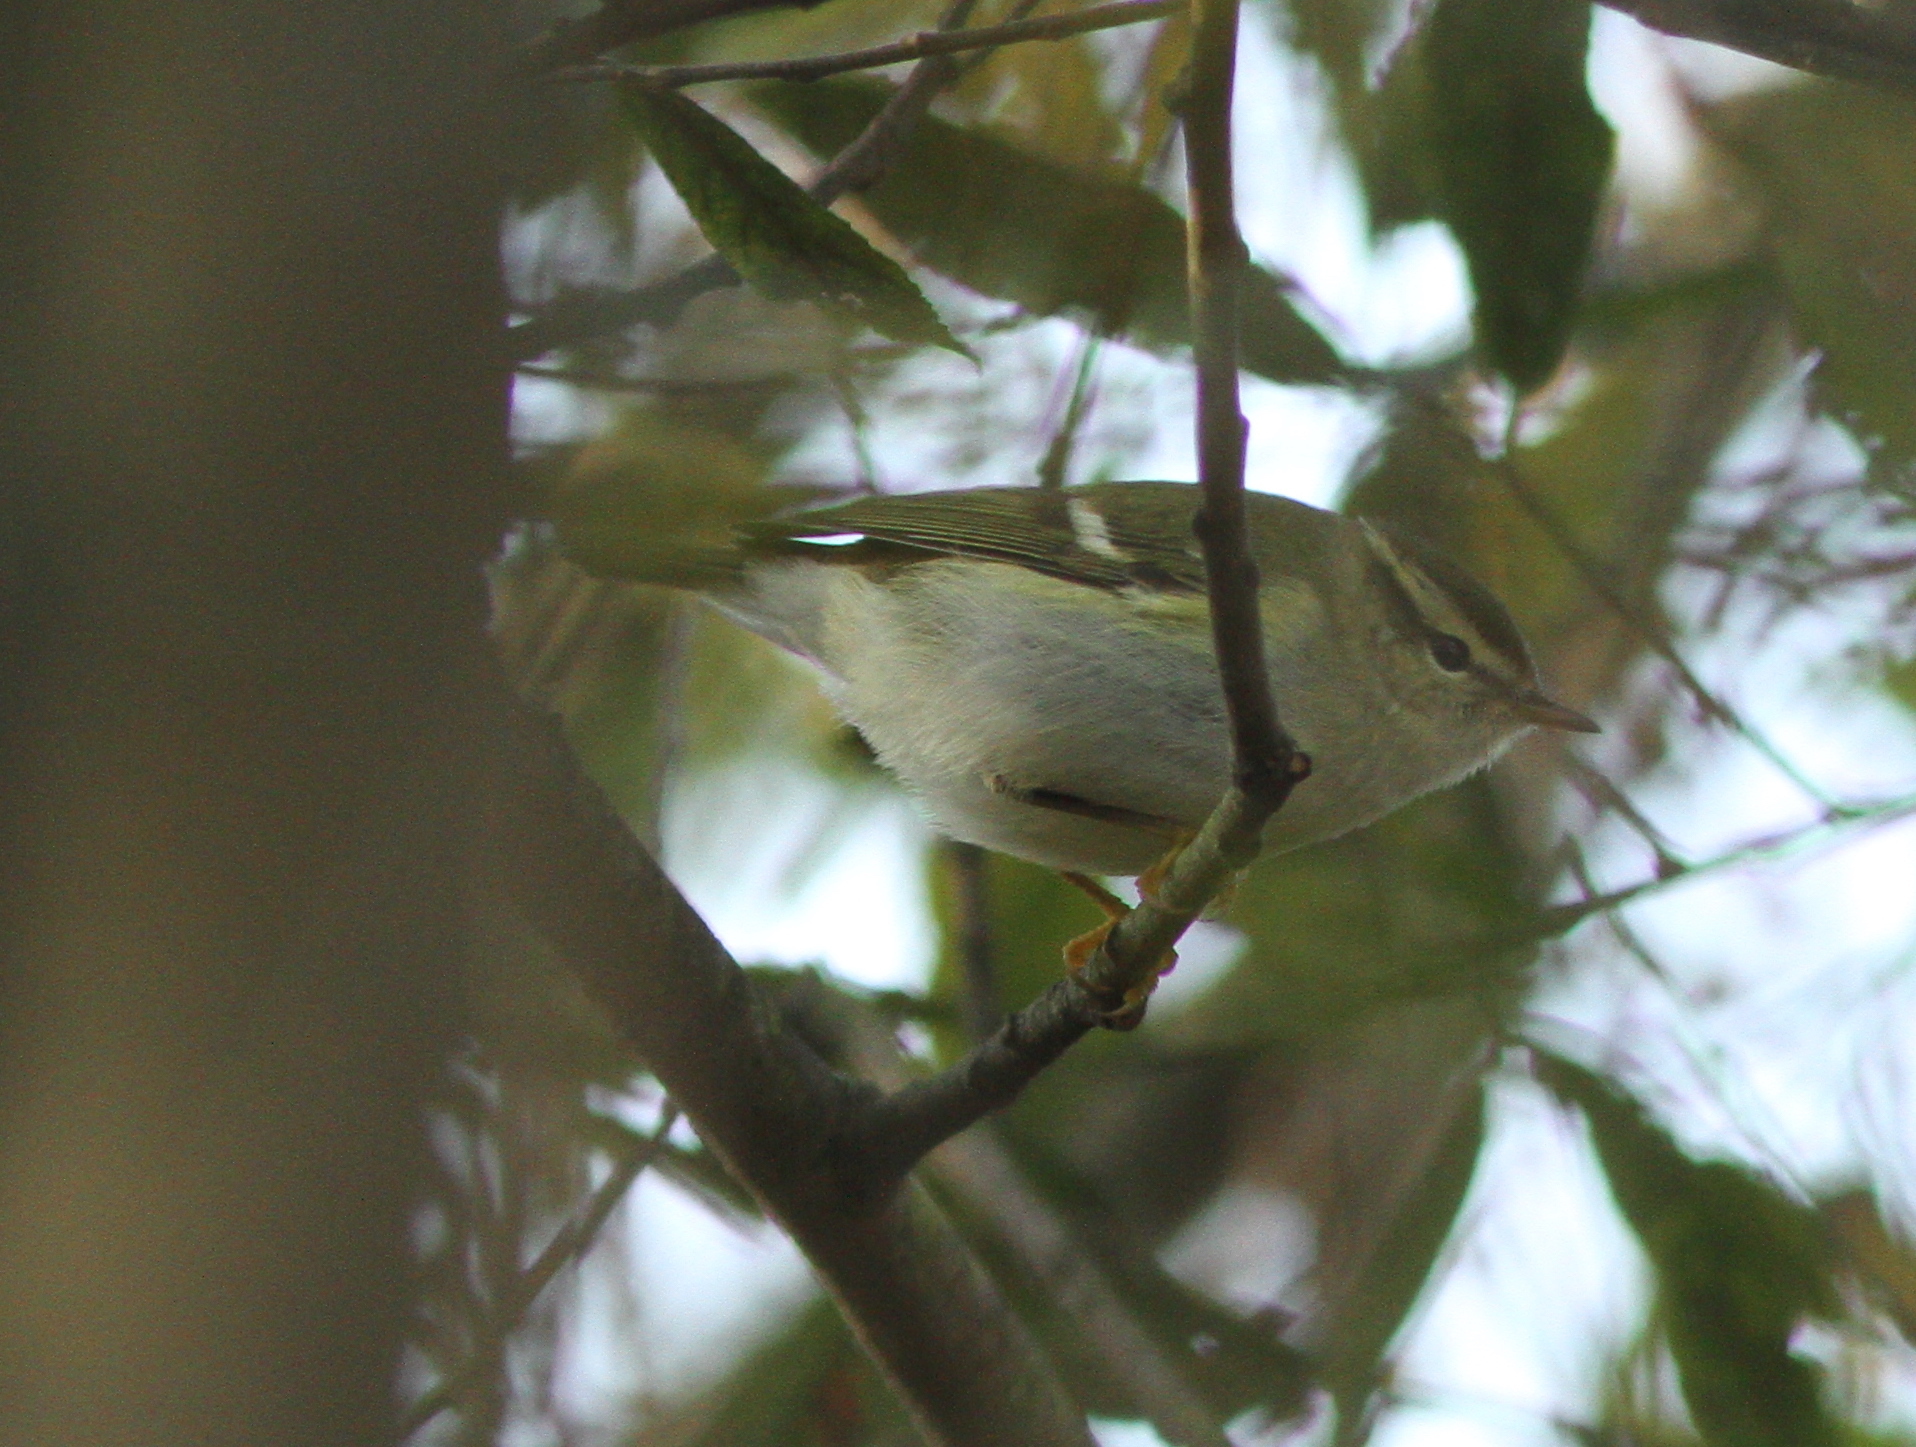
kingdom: Animalia
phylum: Chordata
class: Aves
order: Passeriformes
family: Phylloscopidae
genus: Phylloscopus
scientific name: Phylloscopus inornatus
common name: Yellow-browed warbler
